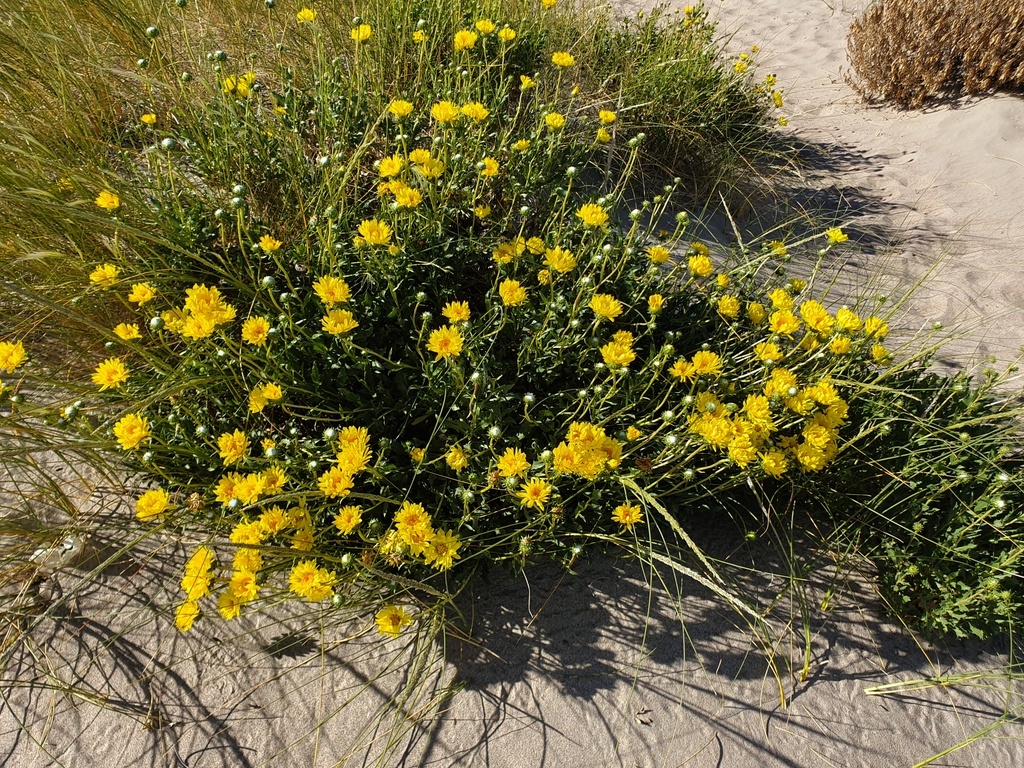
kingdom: Plantae
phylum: Tracheophyta
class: Magnoliopsida
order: Asterales
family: Asteraceae
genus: Grindelia
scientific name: Grindelia chiloensis
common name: Shrubby gumweed
